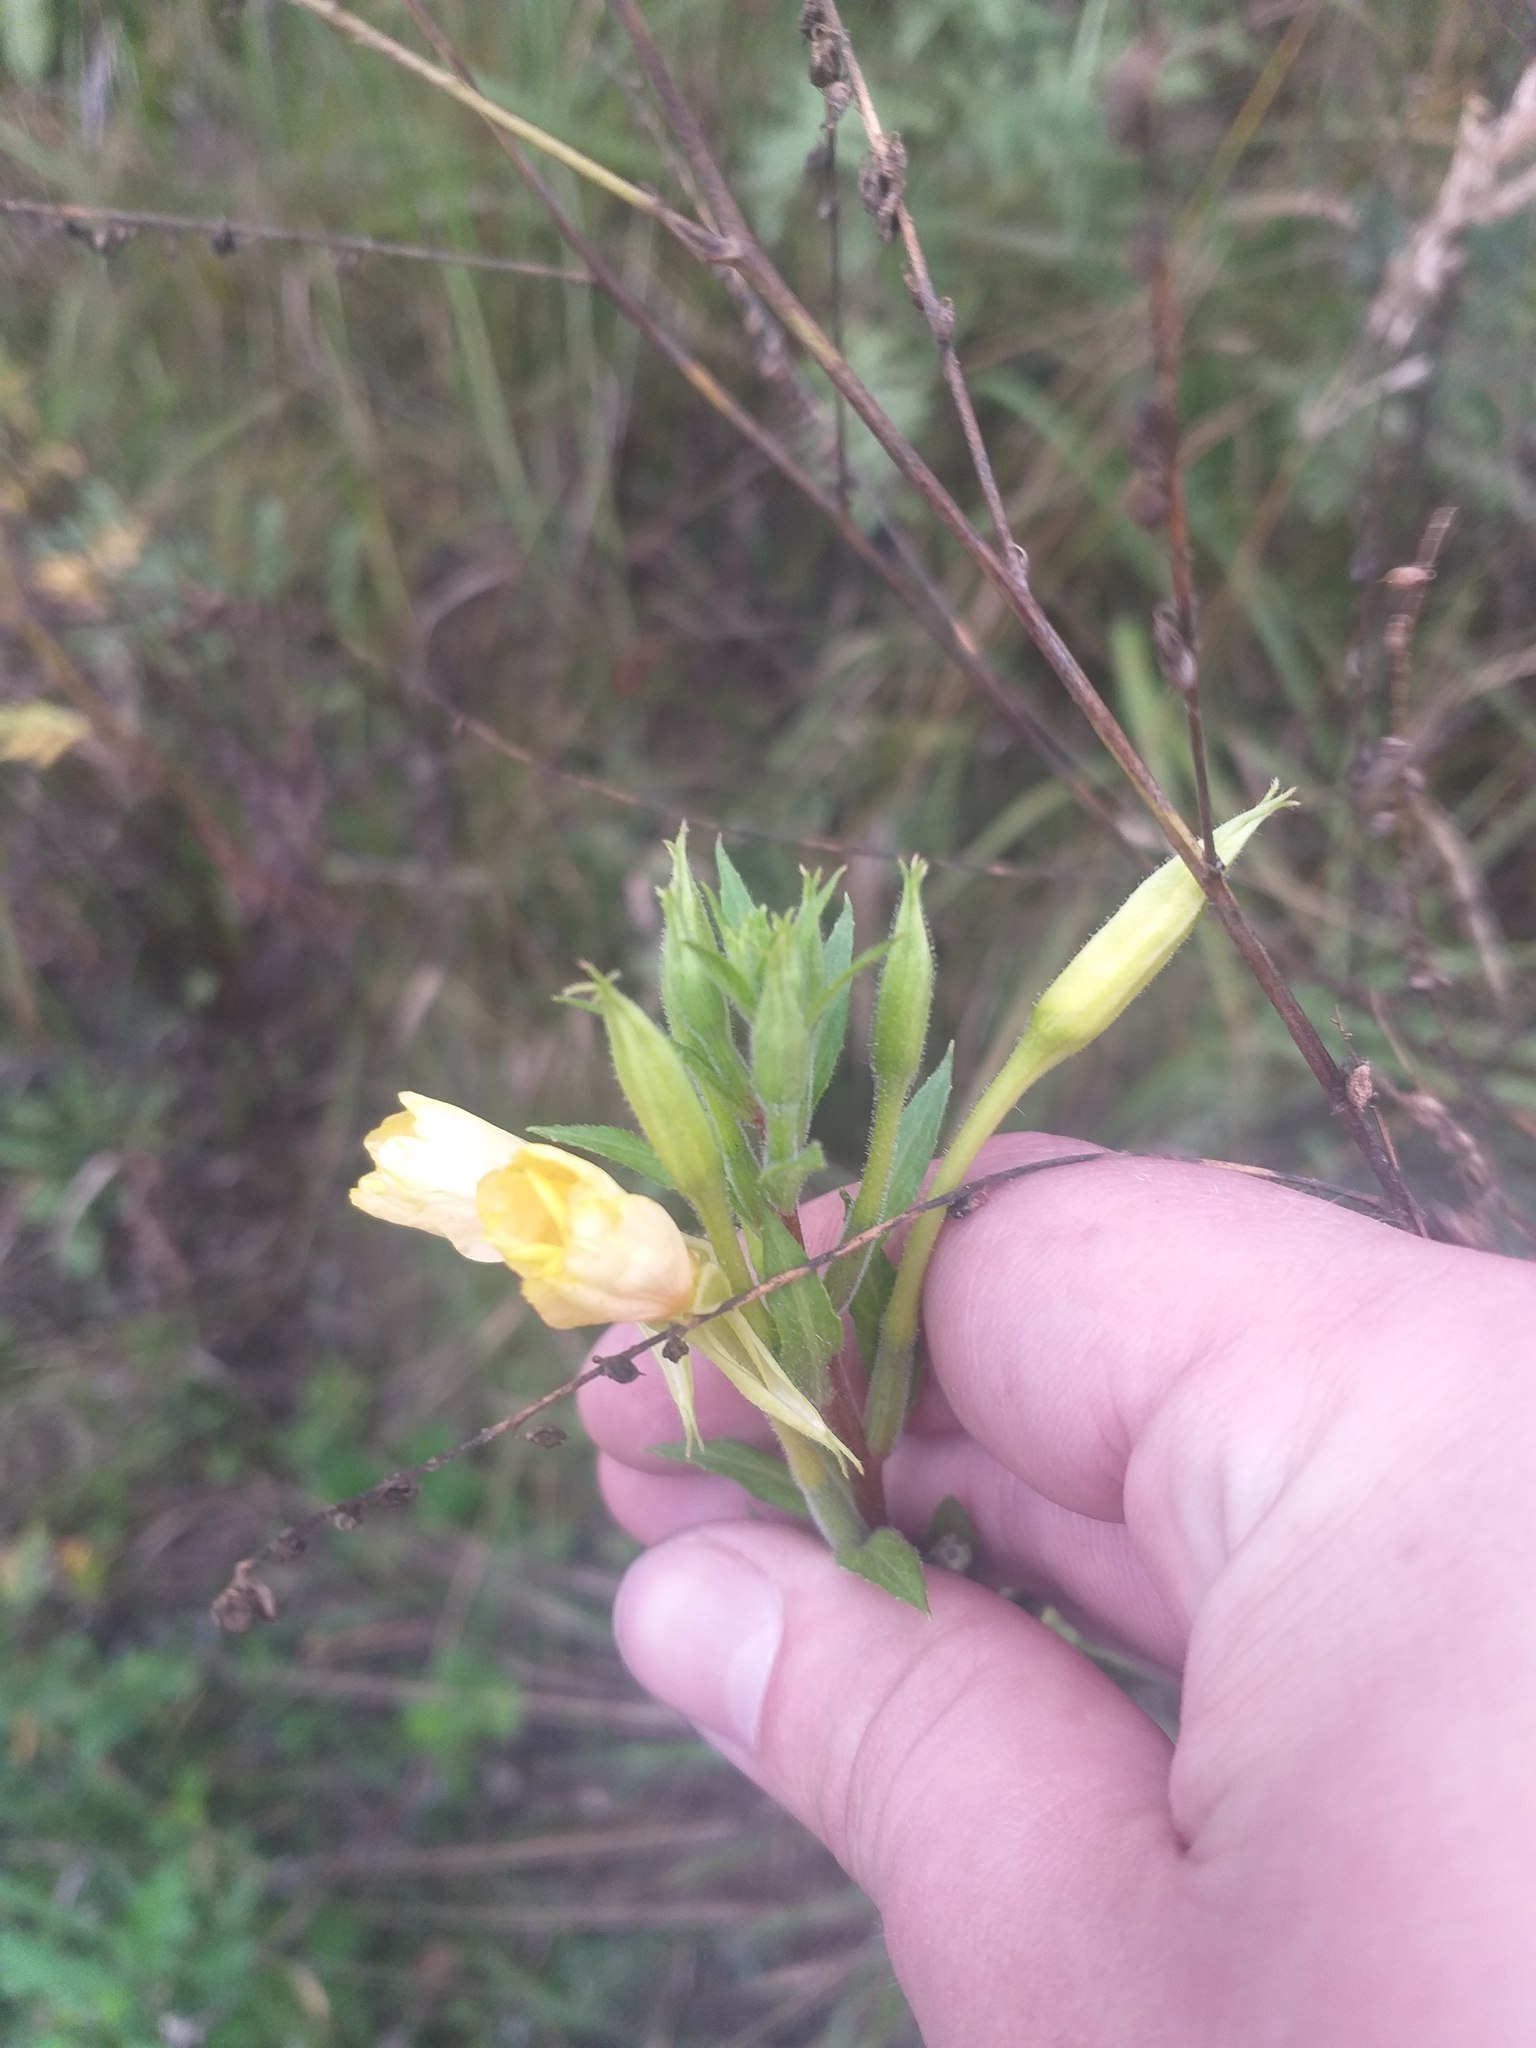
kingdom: Plantae
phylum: Tracheophyta
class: Magnoliopsida
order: Myrtales
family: Onagraceae
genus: Oenothera
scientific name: Oenothera rubricaulis
